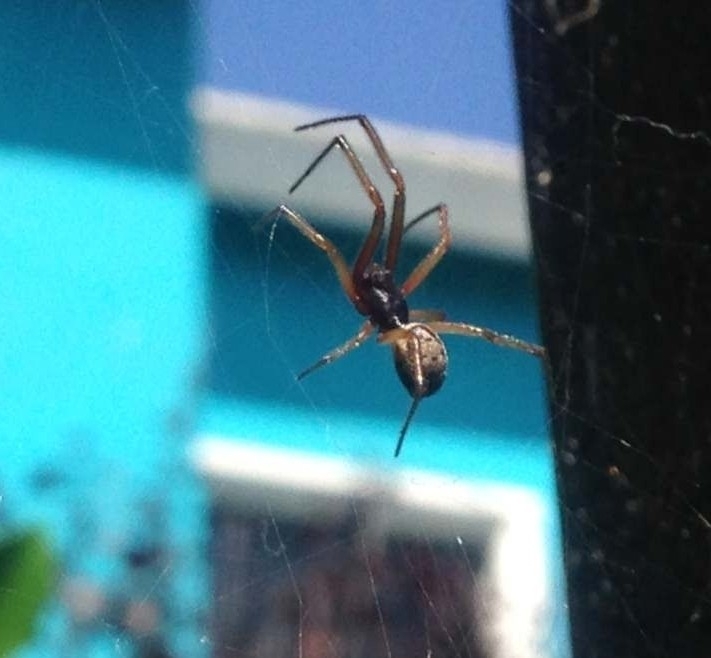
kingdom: Animalia
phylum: Arthropoda
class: Arachnida
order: Araneae
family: Theridiidae
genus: Steatoda
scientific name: Steatoda nobilis
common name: Cobweb weaver
